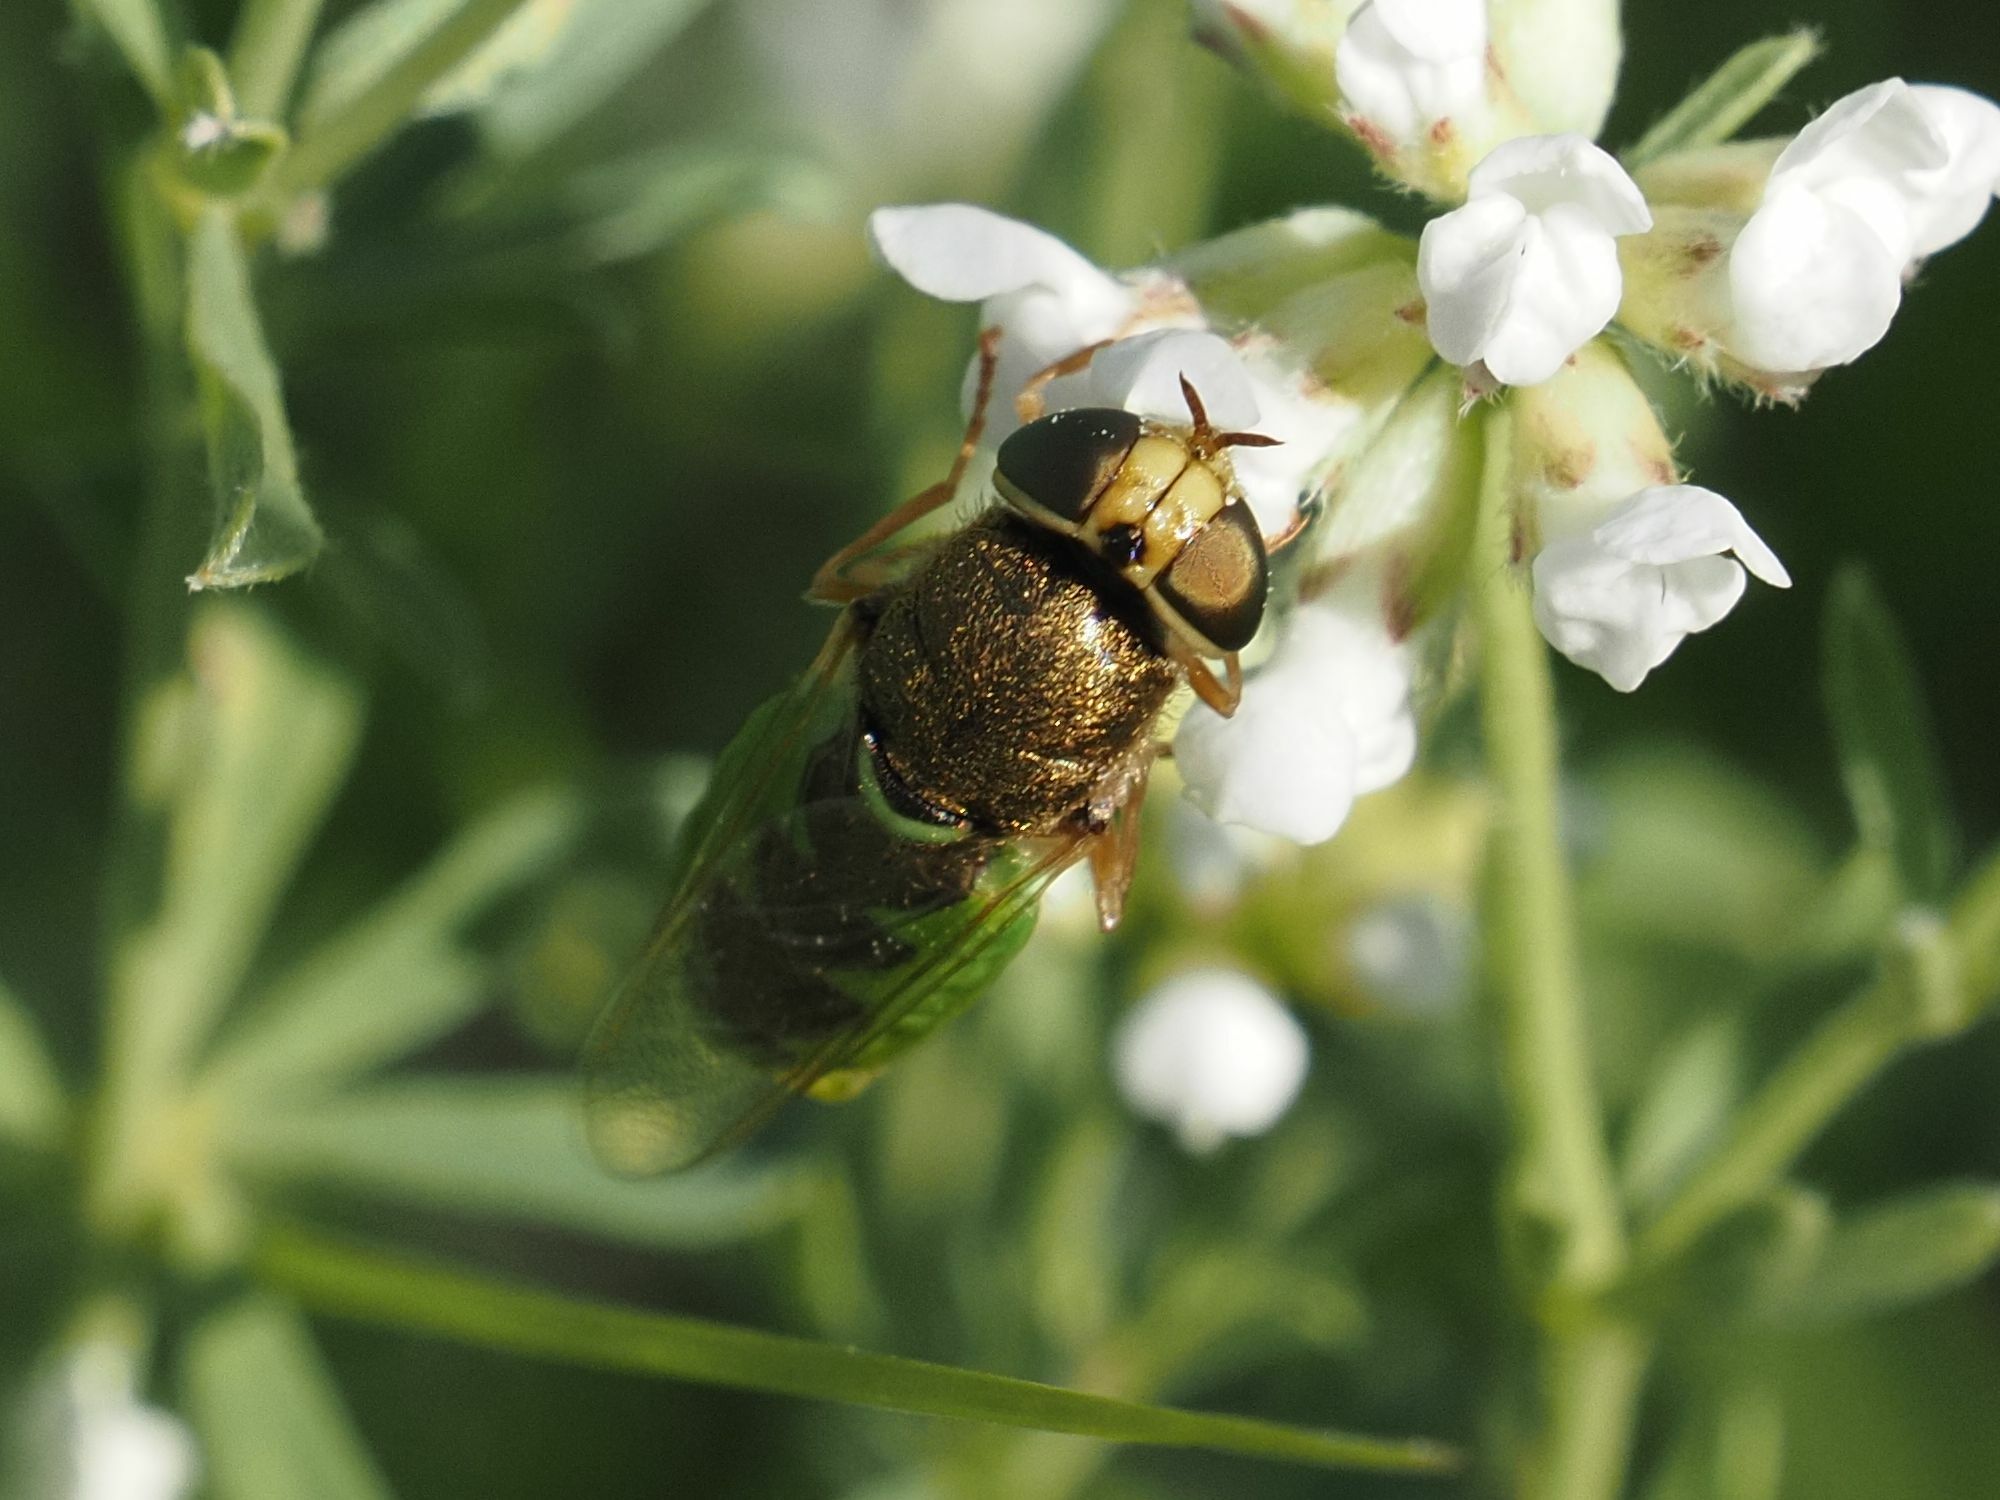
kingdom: Animalia
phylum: Arthropoda
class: Insecta
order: Diptera
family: Stratiomyidae
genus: Odontomyia
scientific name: Odontomyia angulata
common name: Orange-horned green colonel
